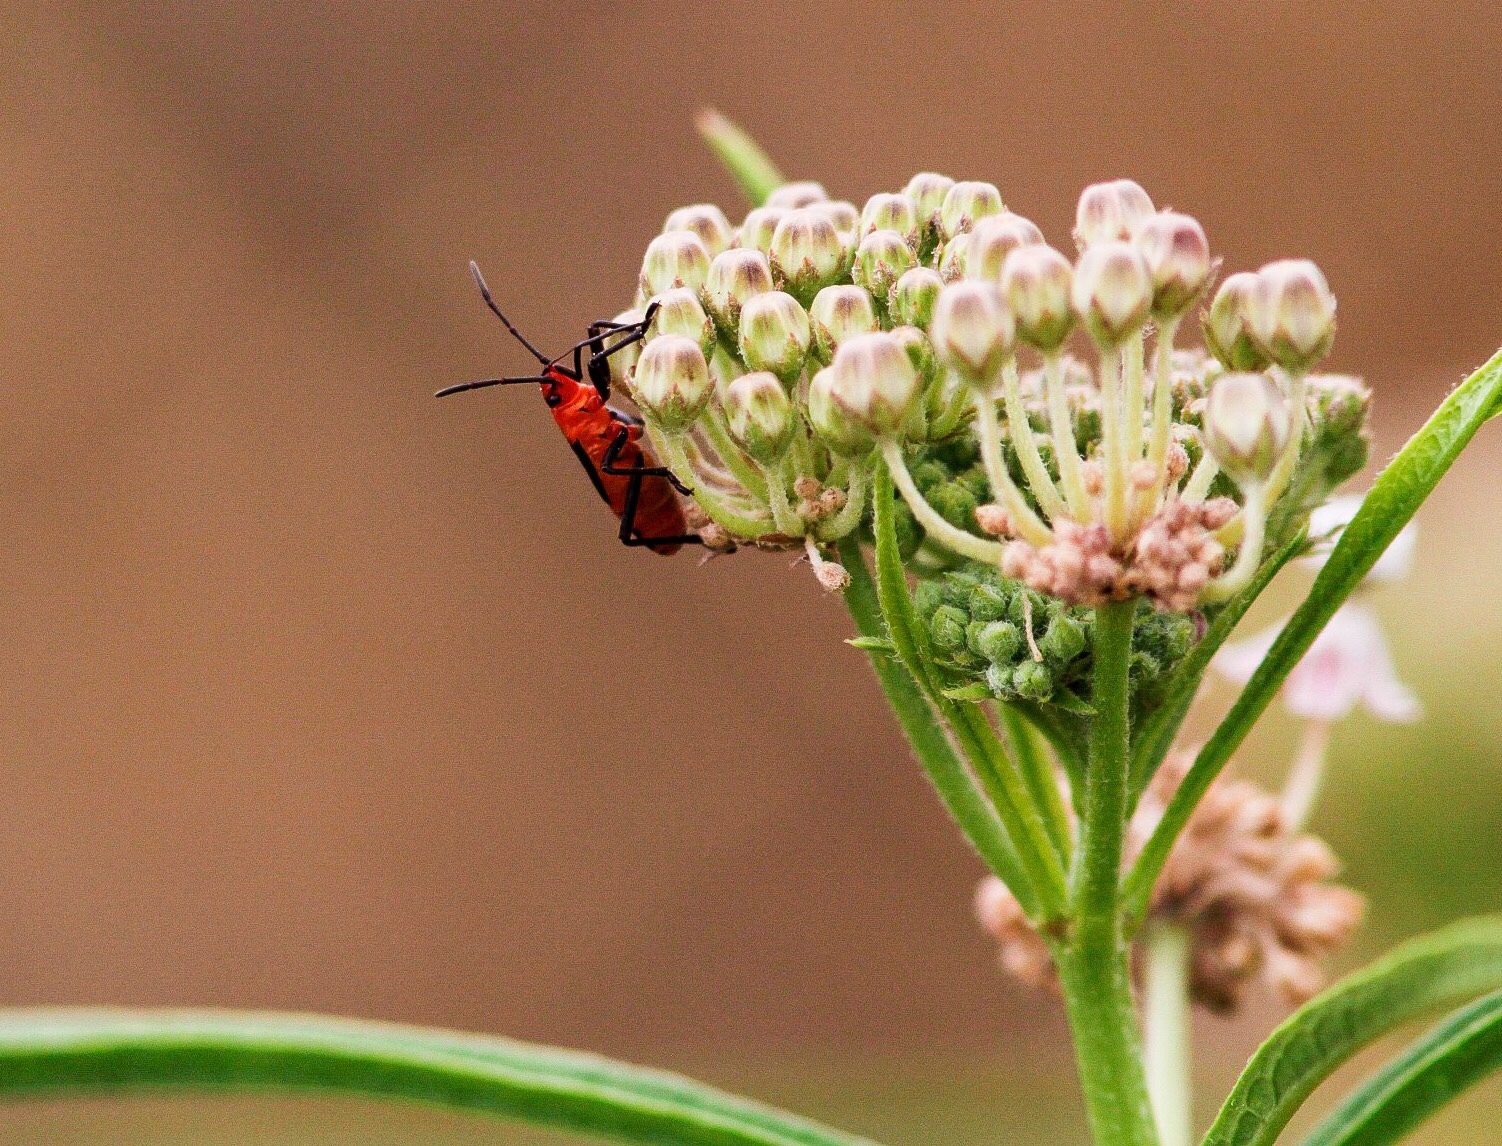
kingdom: Animalia
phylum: Arthropoda
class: Insecta
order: Hemiptera
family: Lygaeidae
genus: Oncopeltus
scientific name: Oncopeltus fasciatus
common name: Large milkweed bug
